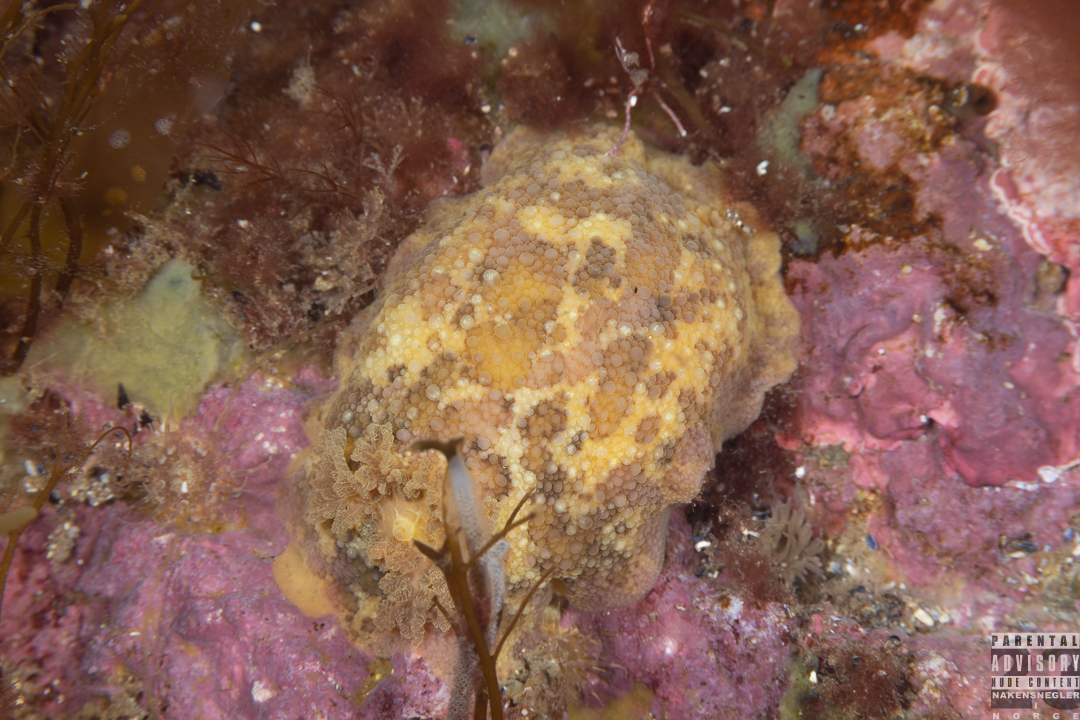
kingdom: Animalia
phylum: Mollusca
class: Gastropoda
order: Nudibranchia
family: Dorididae
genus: Doris
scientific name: Doris pseudoargus
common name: Sea lemon
